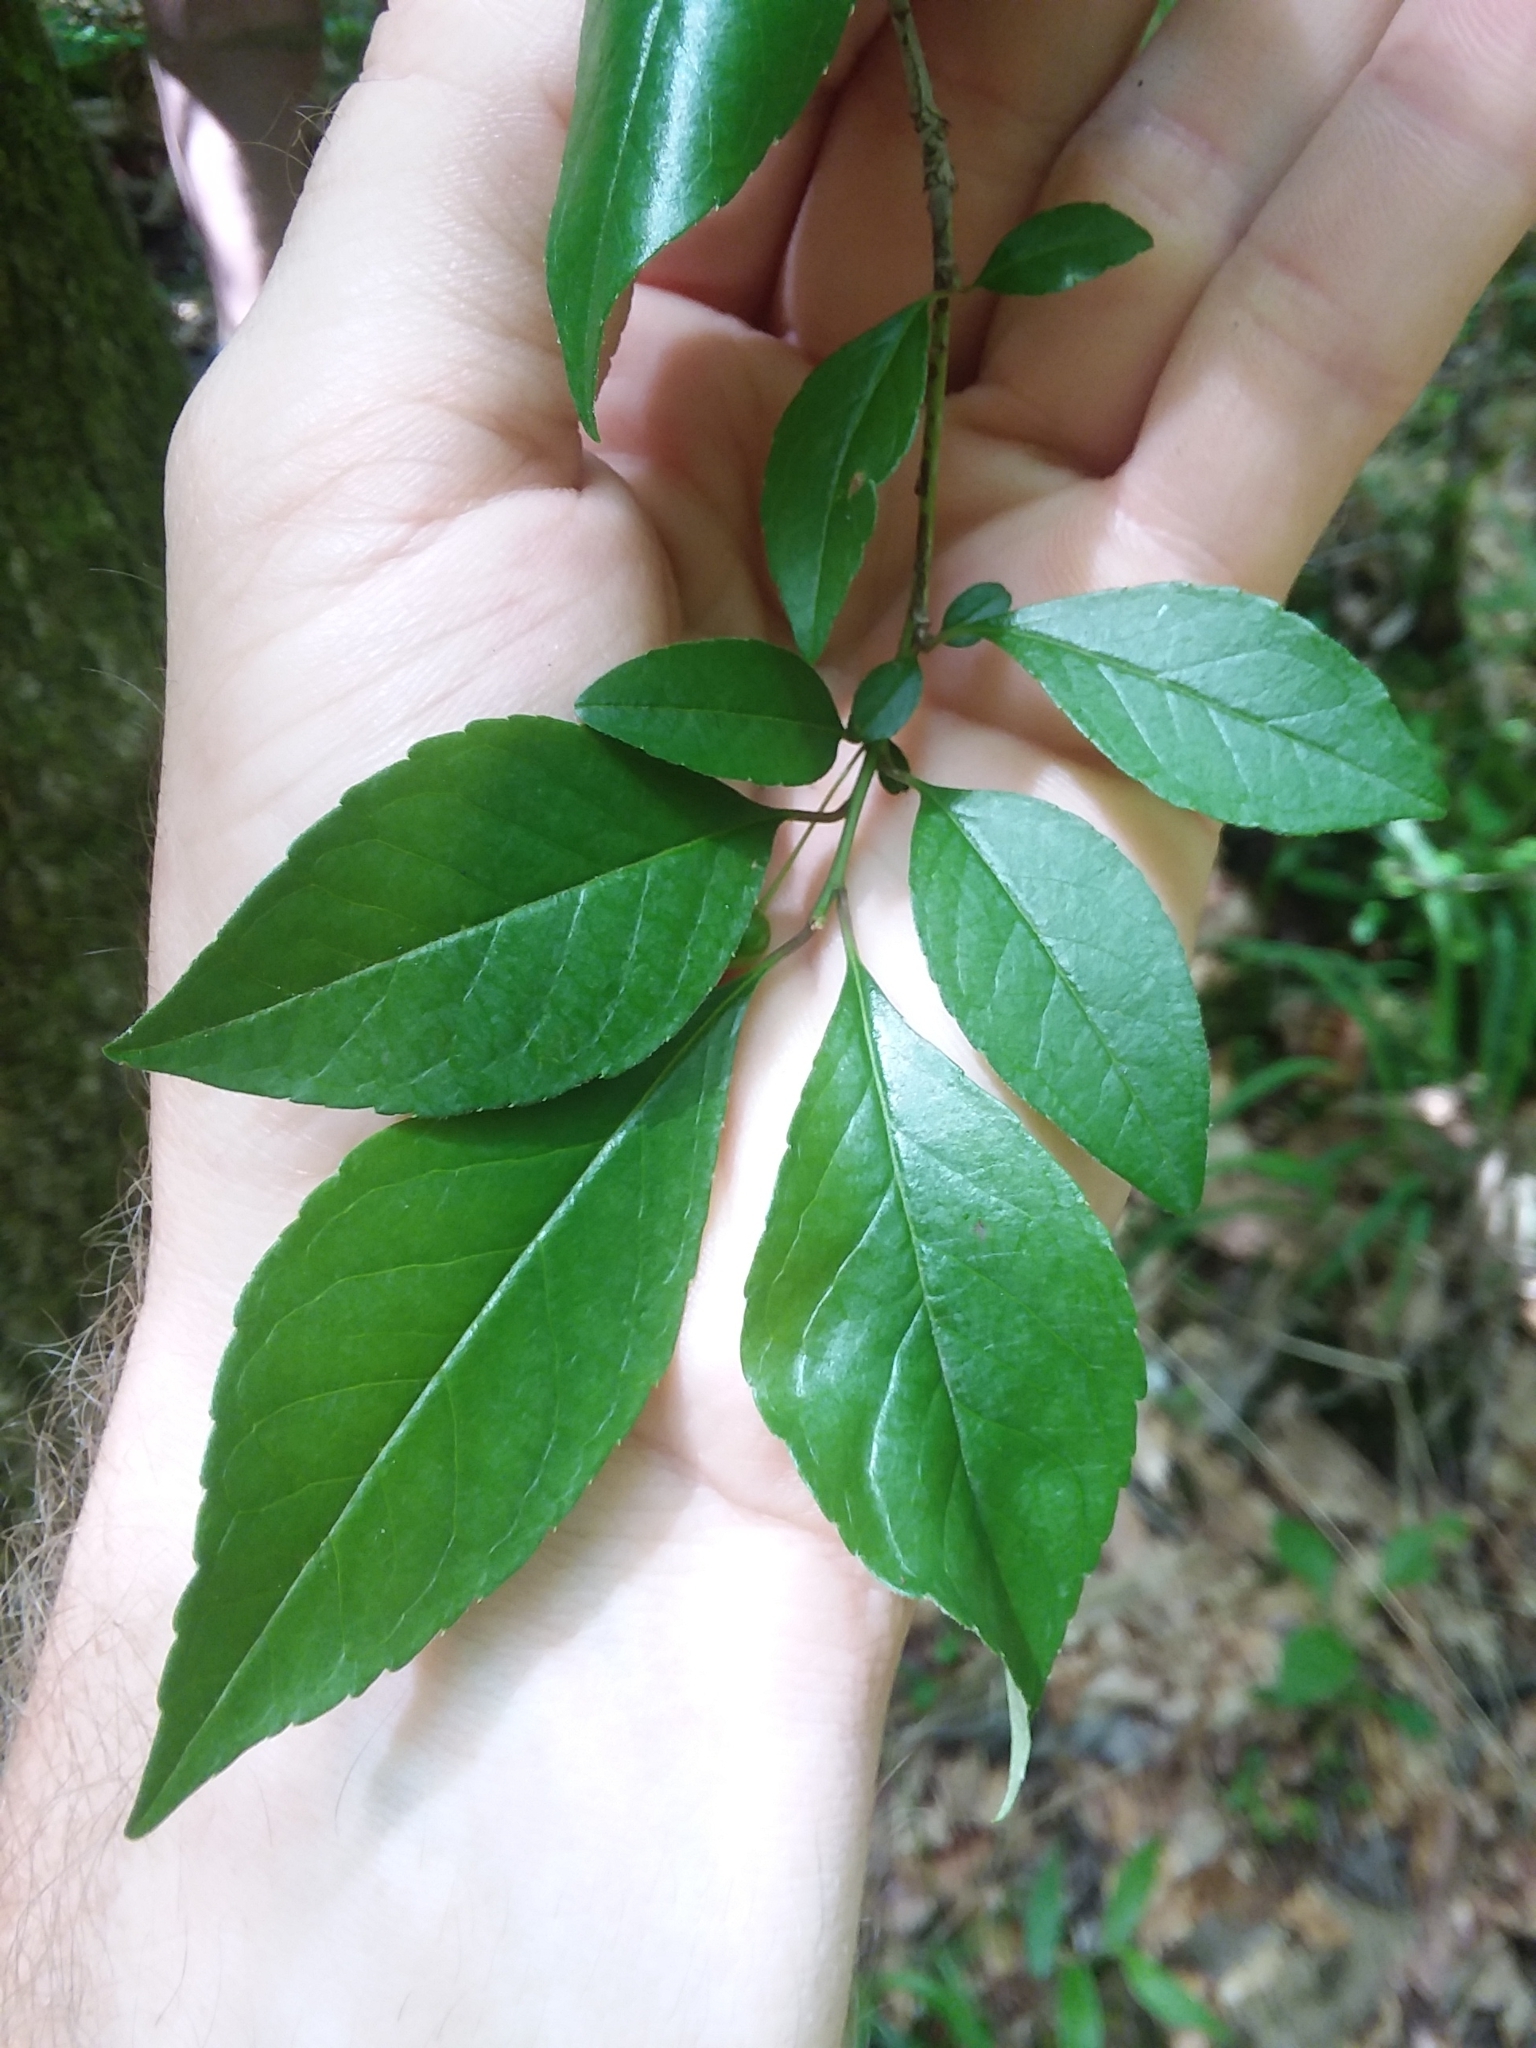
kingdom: Plantae
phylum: Tracheophyta
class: Magnoliopsida
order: Aquifoliales
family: Aquifoliaceae
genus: Ilex
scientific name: Ilex longipes
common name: Georgia holly
